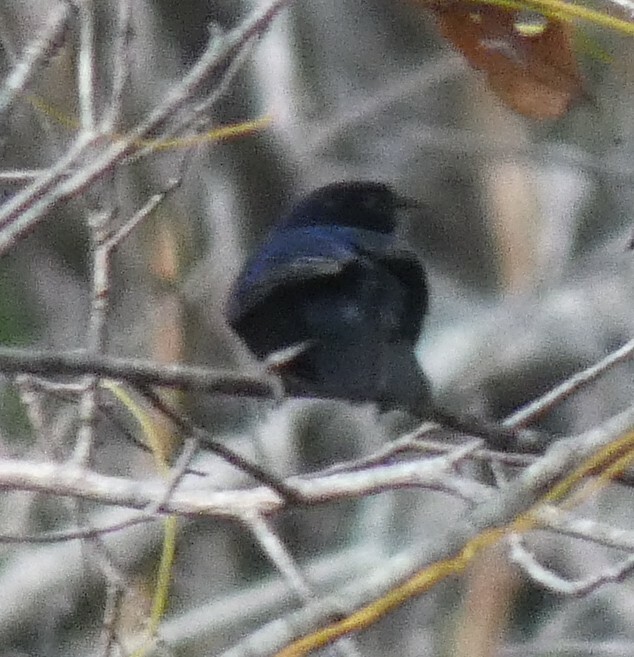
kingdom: Animalia
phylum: Chordata
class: Aves
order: Passeriformes
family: Thraupidae
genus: Volatinia
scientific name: Volatinia jacarina
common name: Blue-black grassquit
